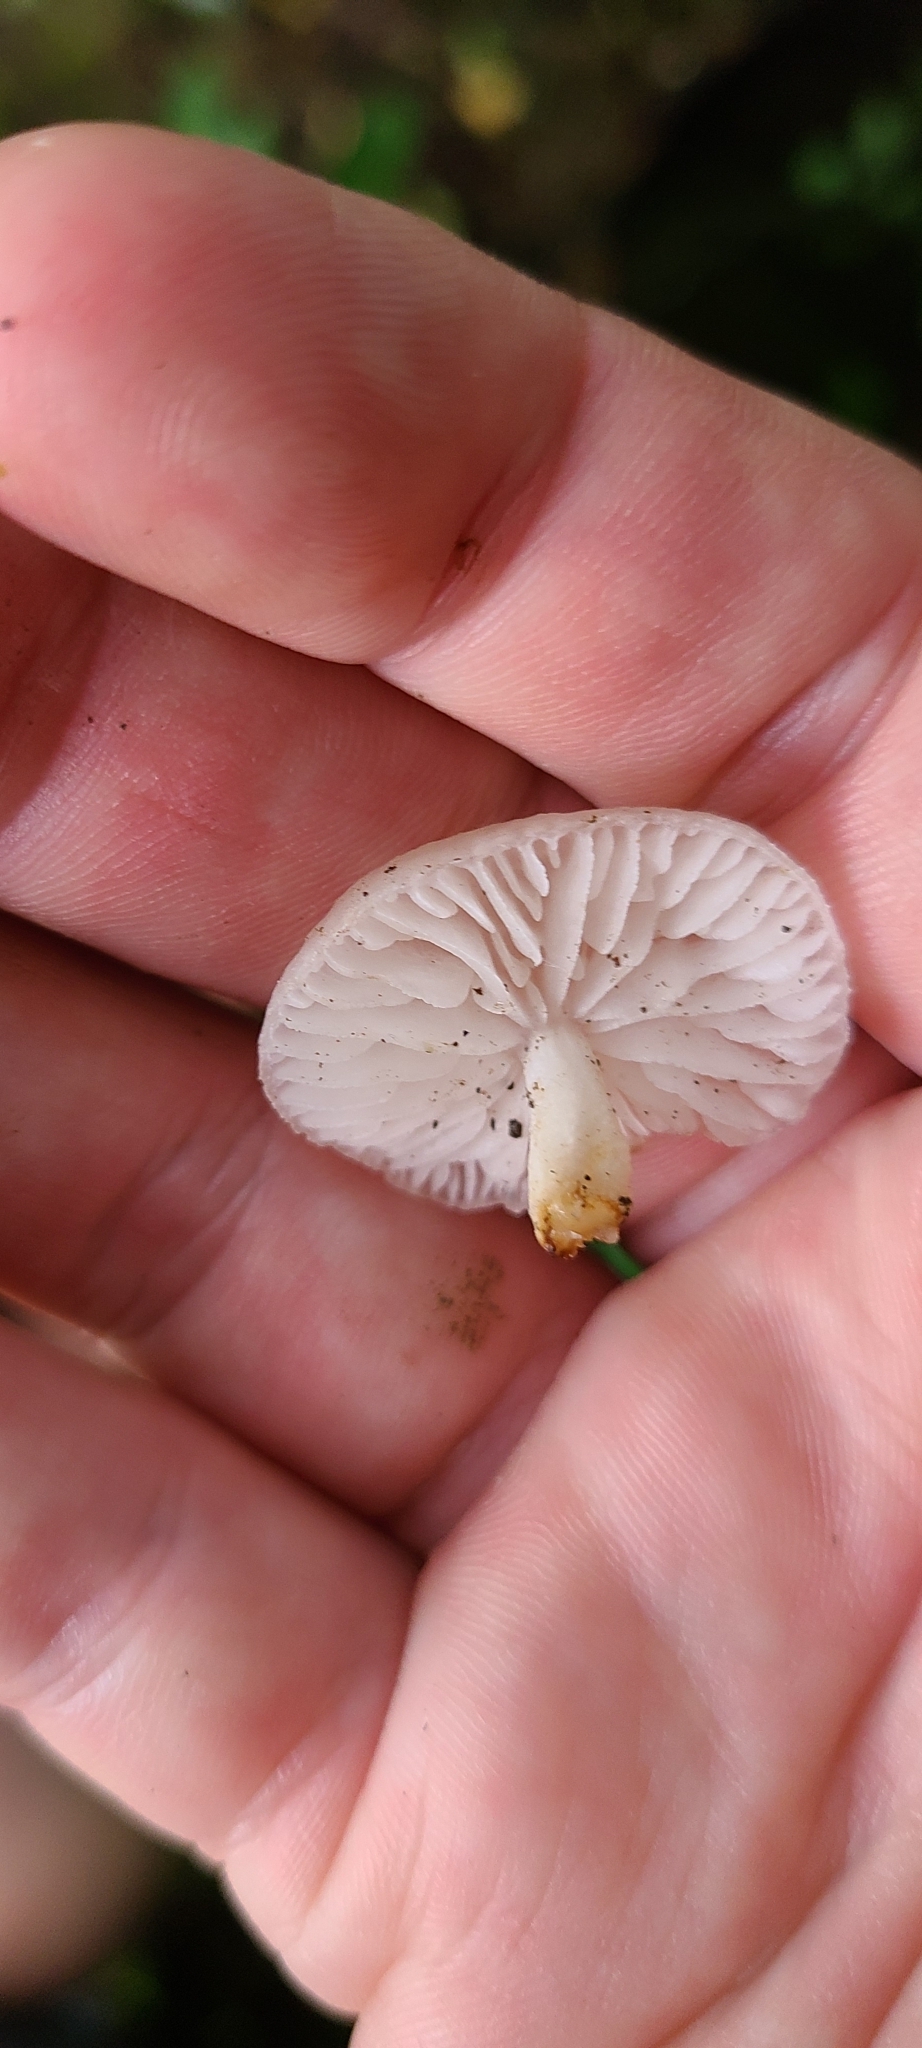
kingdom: Fungi
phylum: Basidiomycota
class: Agaricomycetes
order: Agaricales
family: Physalacriaceae
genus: Oudemansiella
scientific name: Oudemansiella australis
